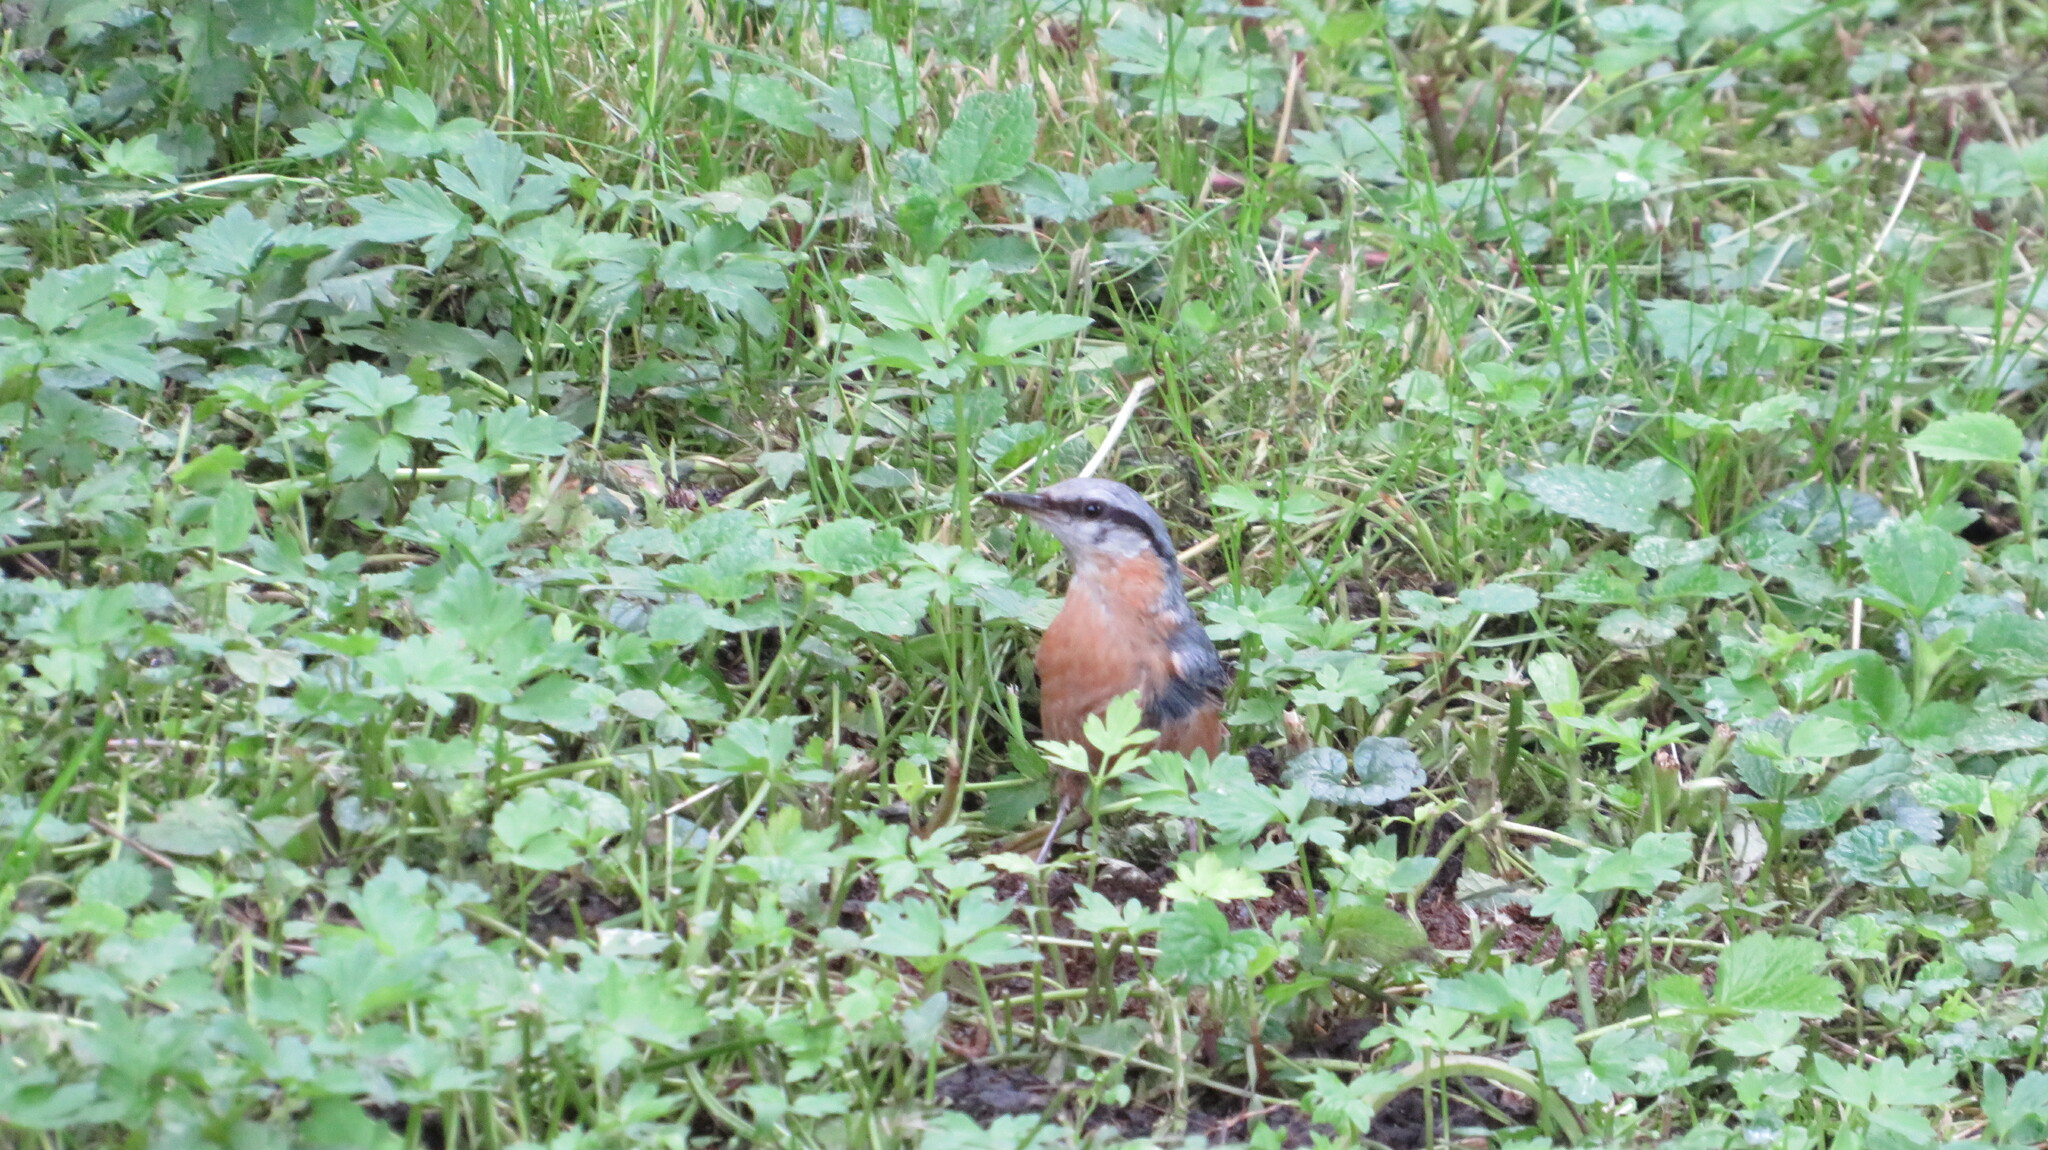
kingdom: Animalia
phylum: Chordata
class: Aves
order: Passeriformes
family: Sittidae
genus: Sitta
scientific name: Sitta europaea
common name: Eurasian nuthatch
